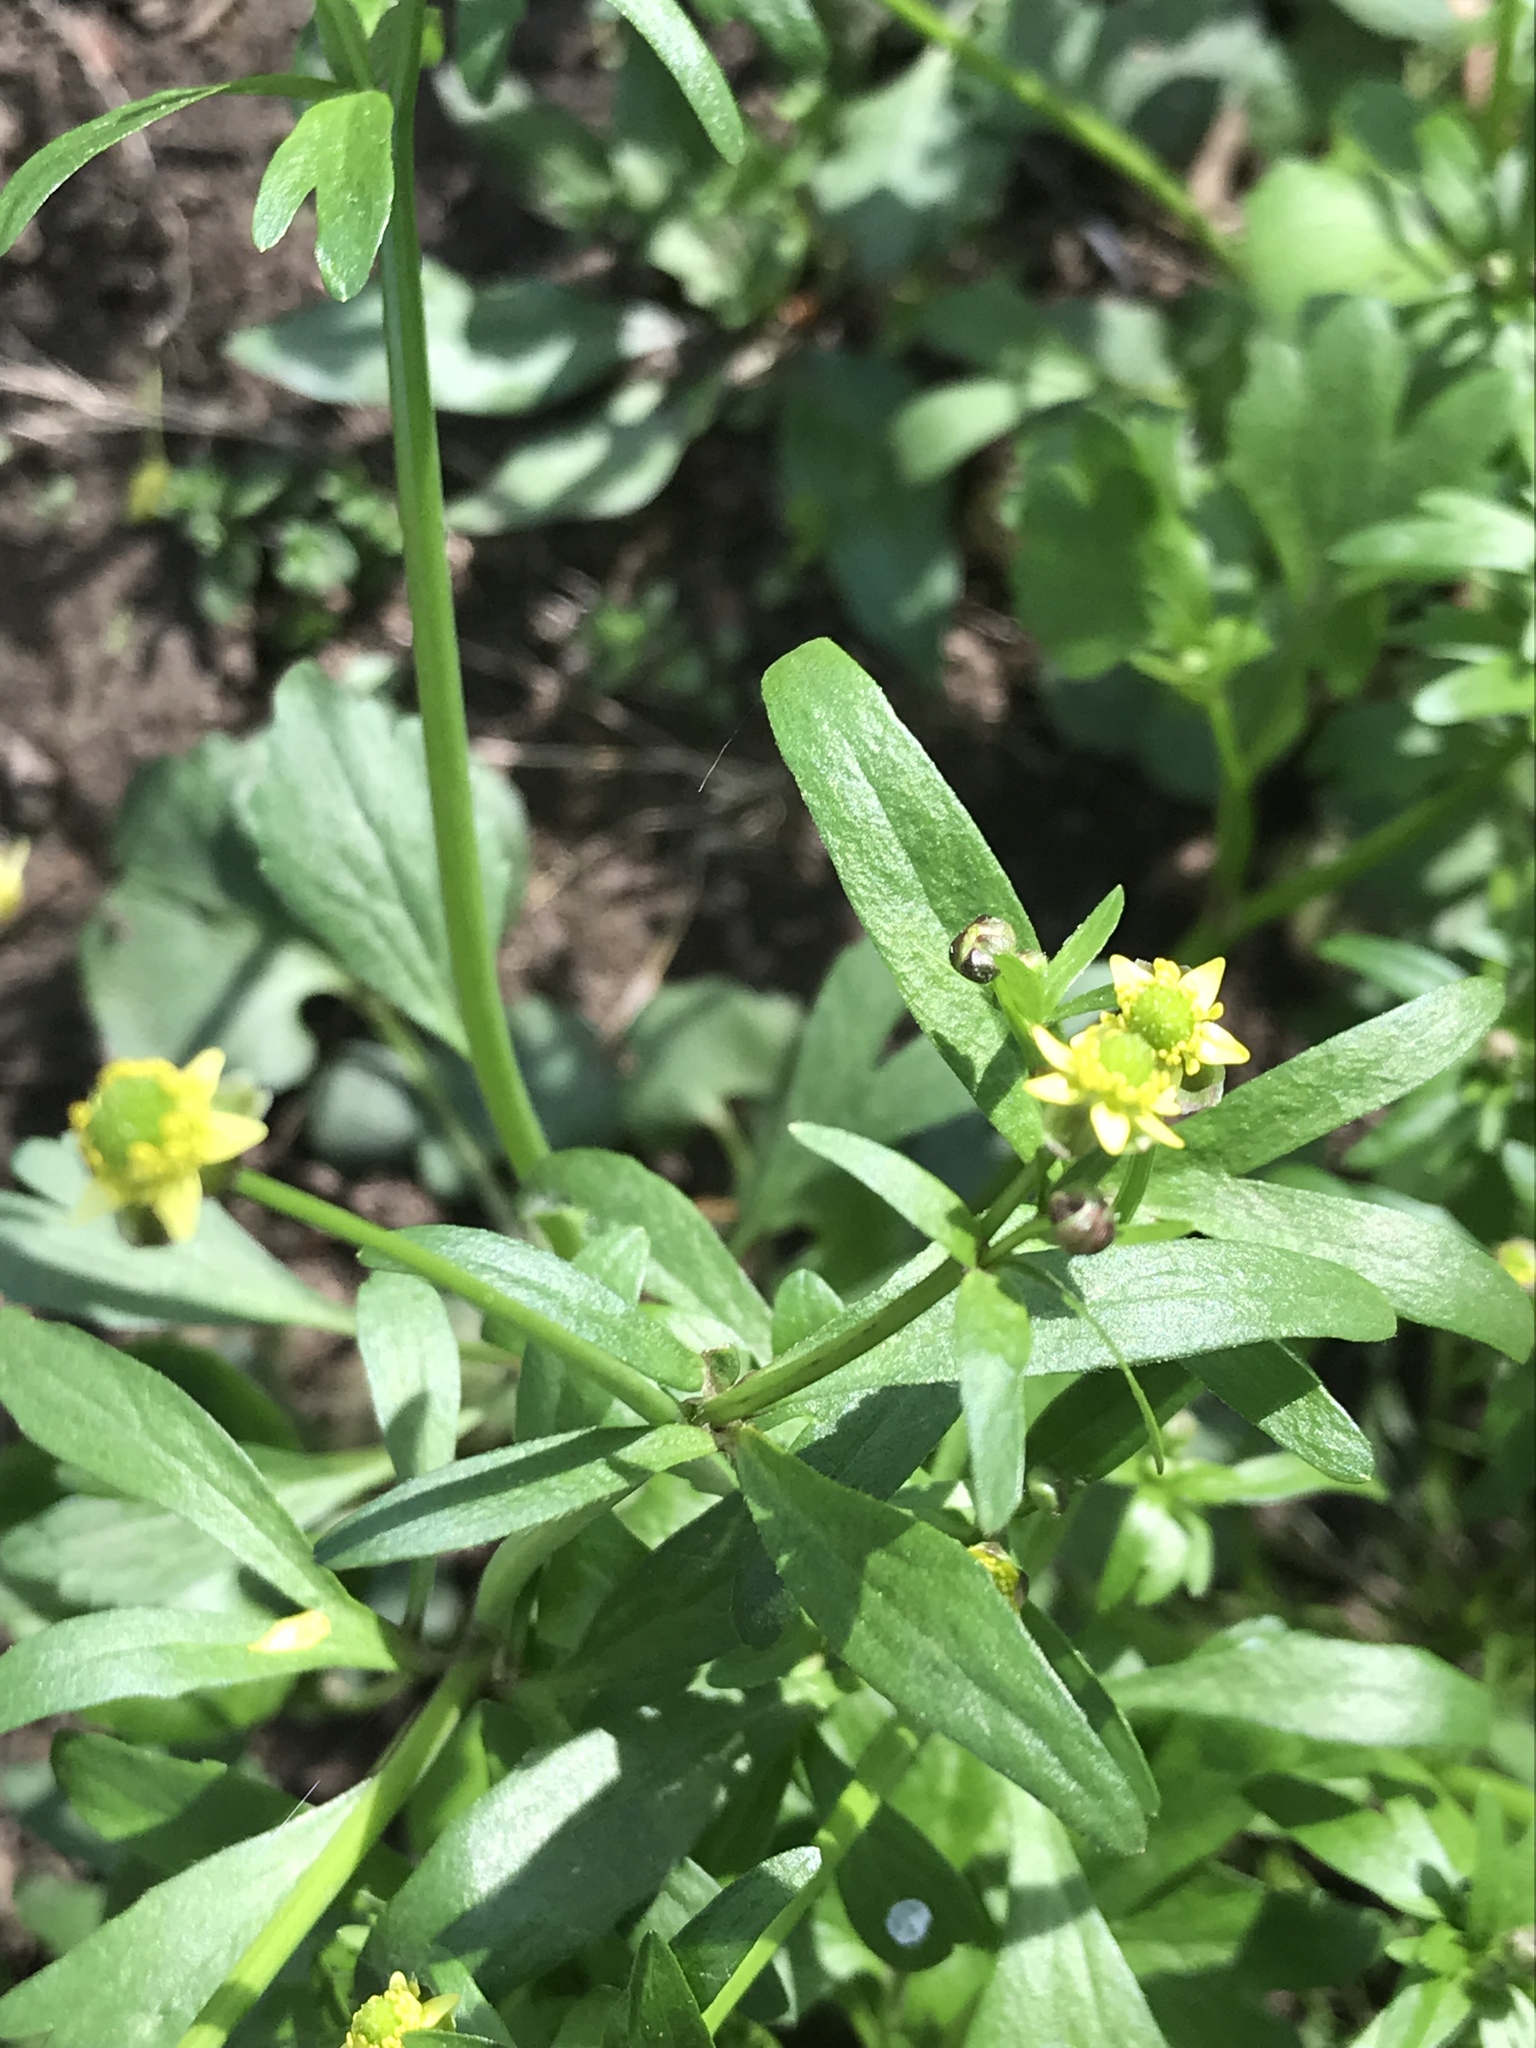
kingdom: Plantae
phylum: Tracheophyta
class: Magnoliopsida
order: Ranunculales
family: Ranunculaceae
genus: Ranunculus
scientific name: Ranunculus abortivus
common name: Early wood buttercup
